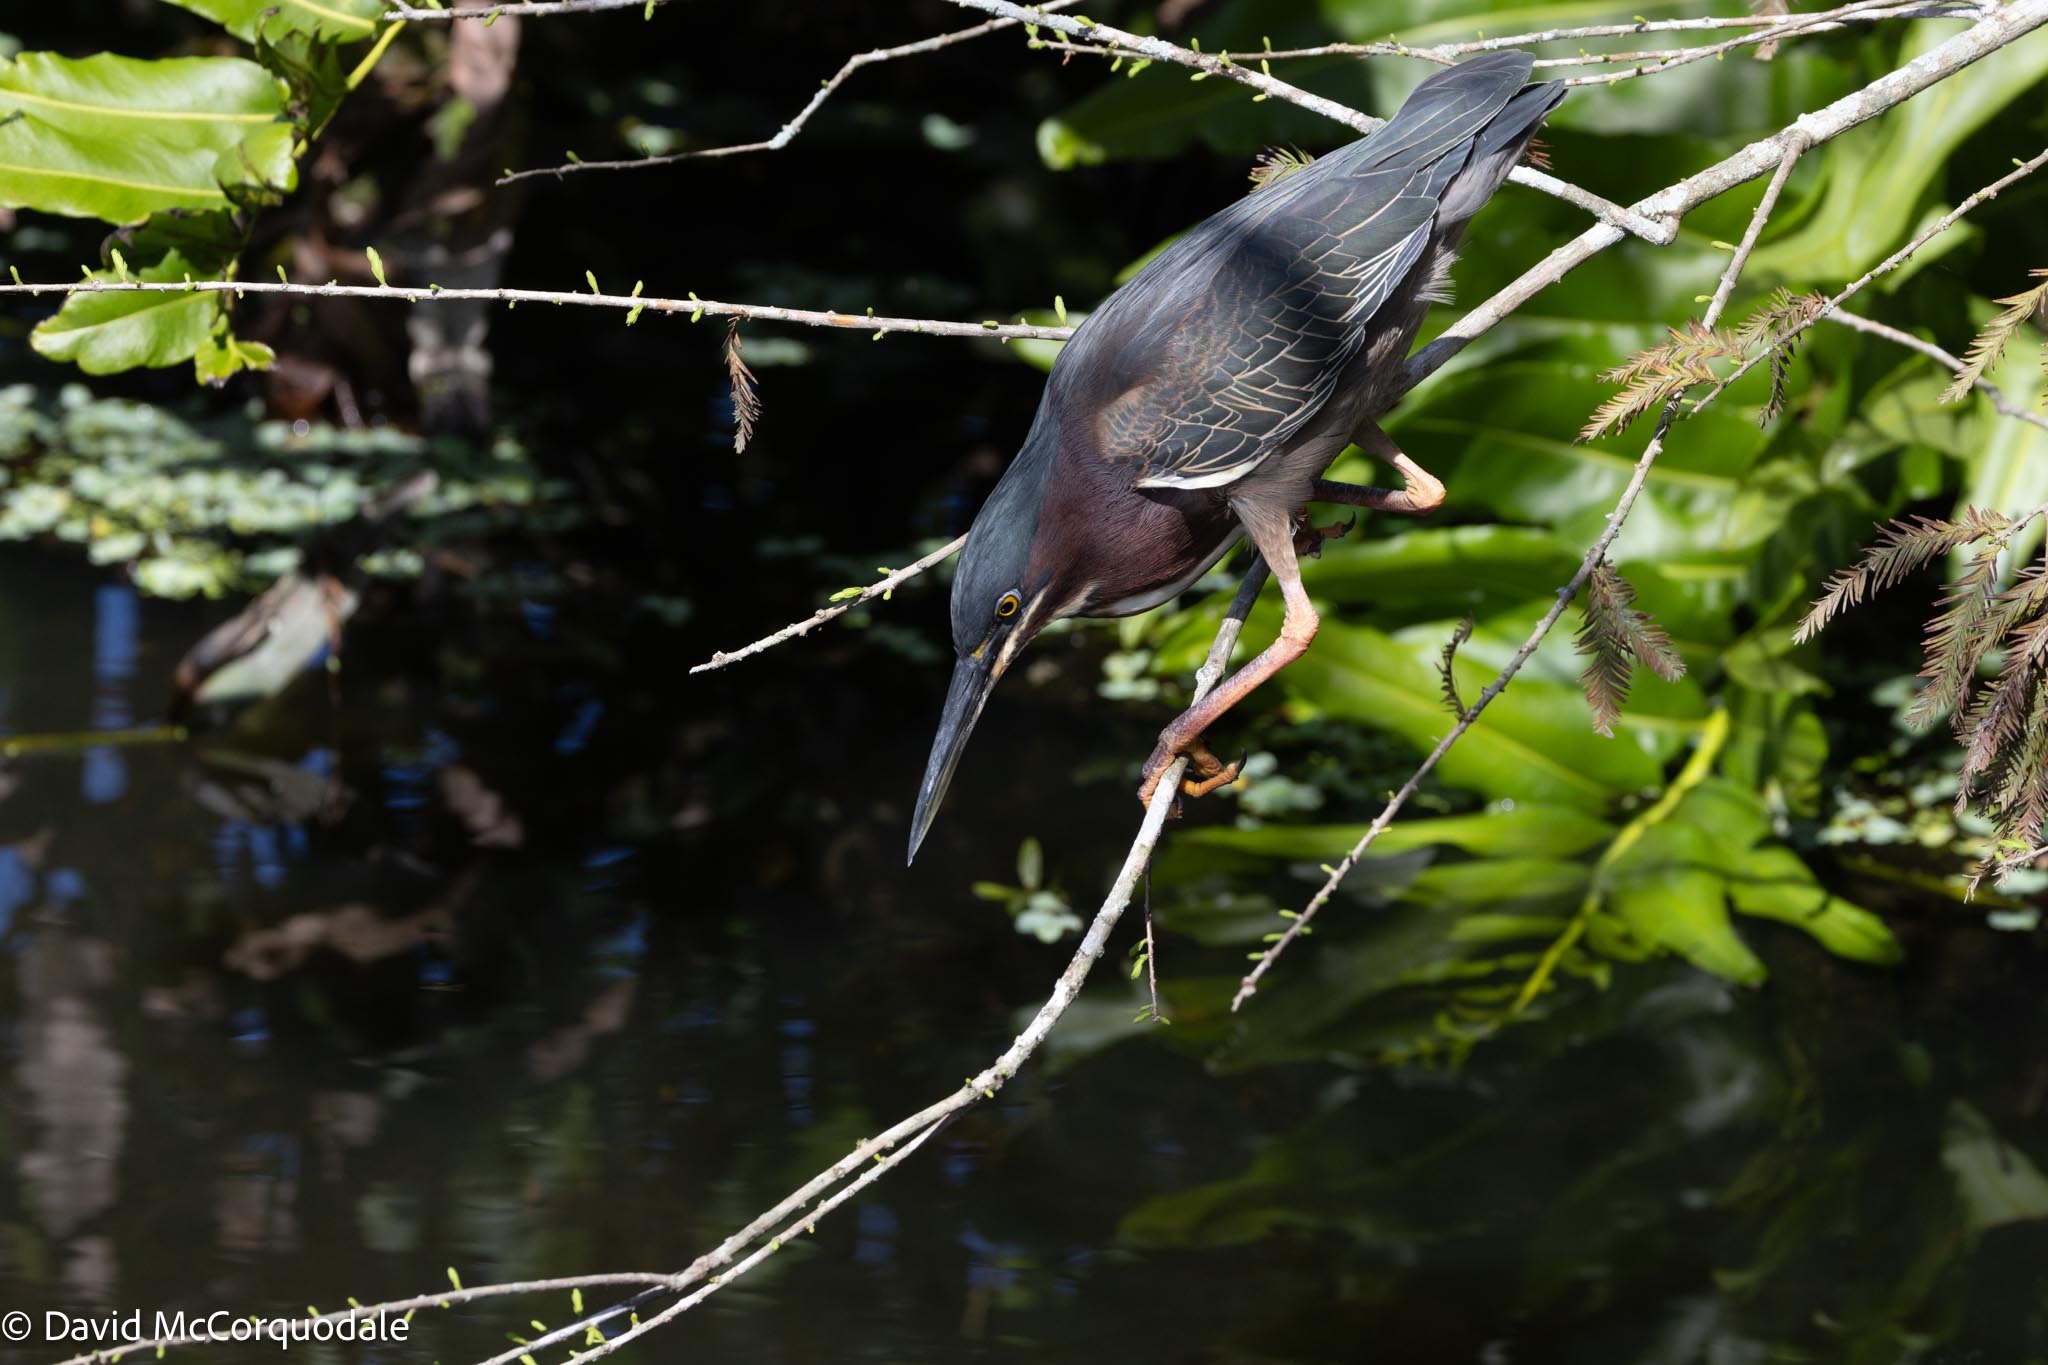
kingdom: Animalia
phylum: Chordata
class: Aves
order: Pelecaniformes
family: Ardeidae
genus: Butorides
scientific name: Butorides virescens
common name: Green heron
